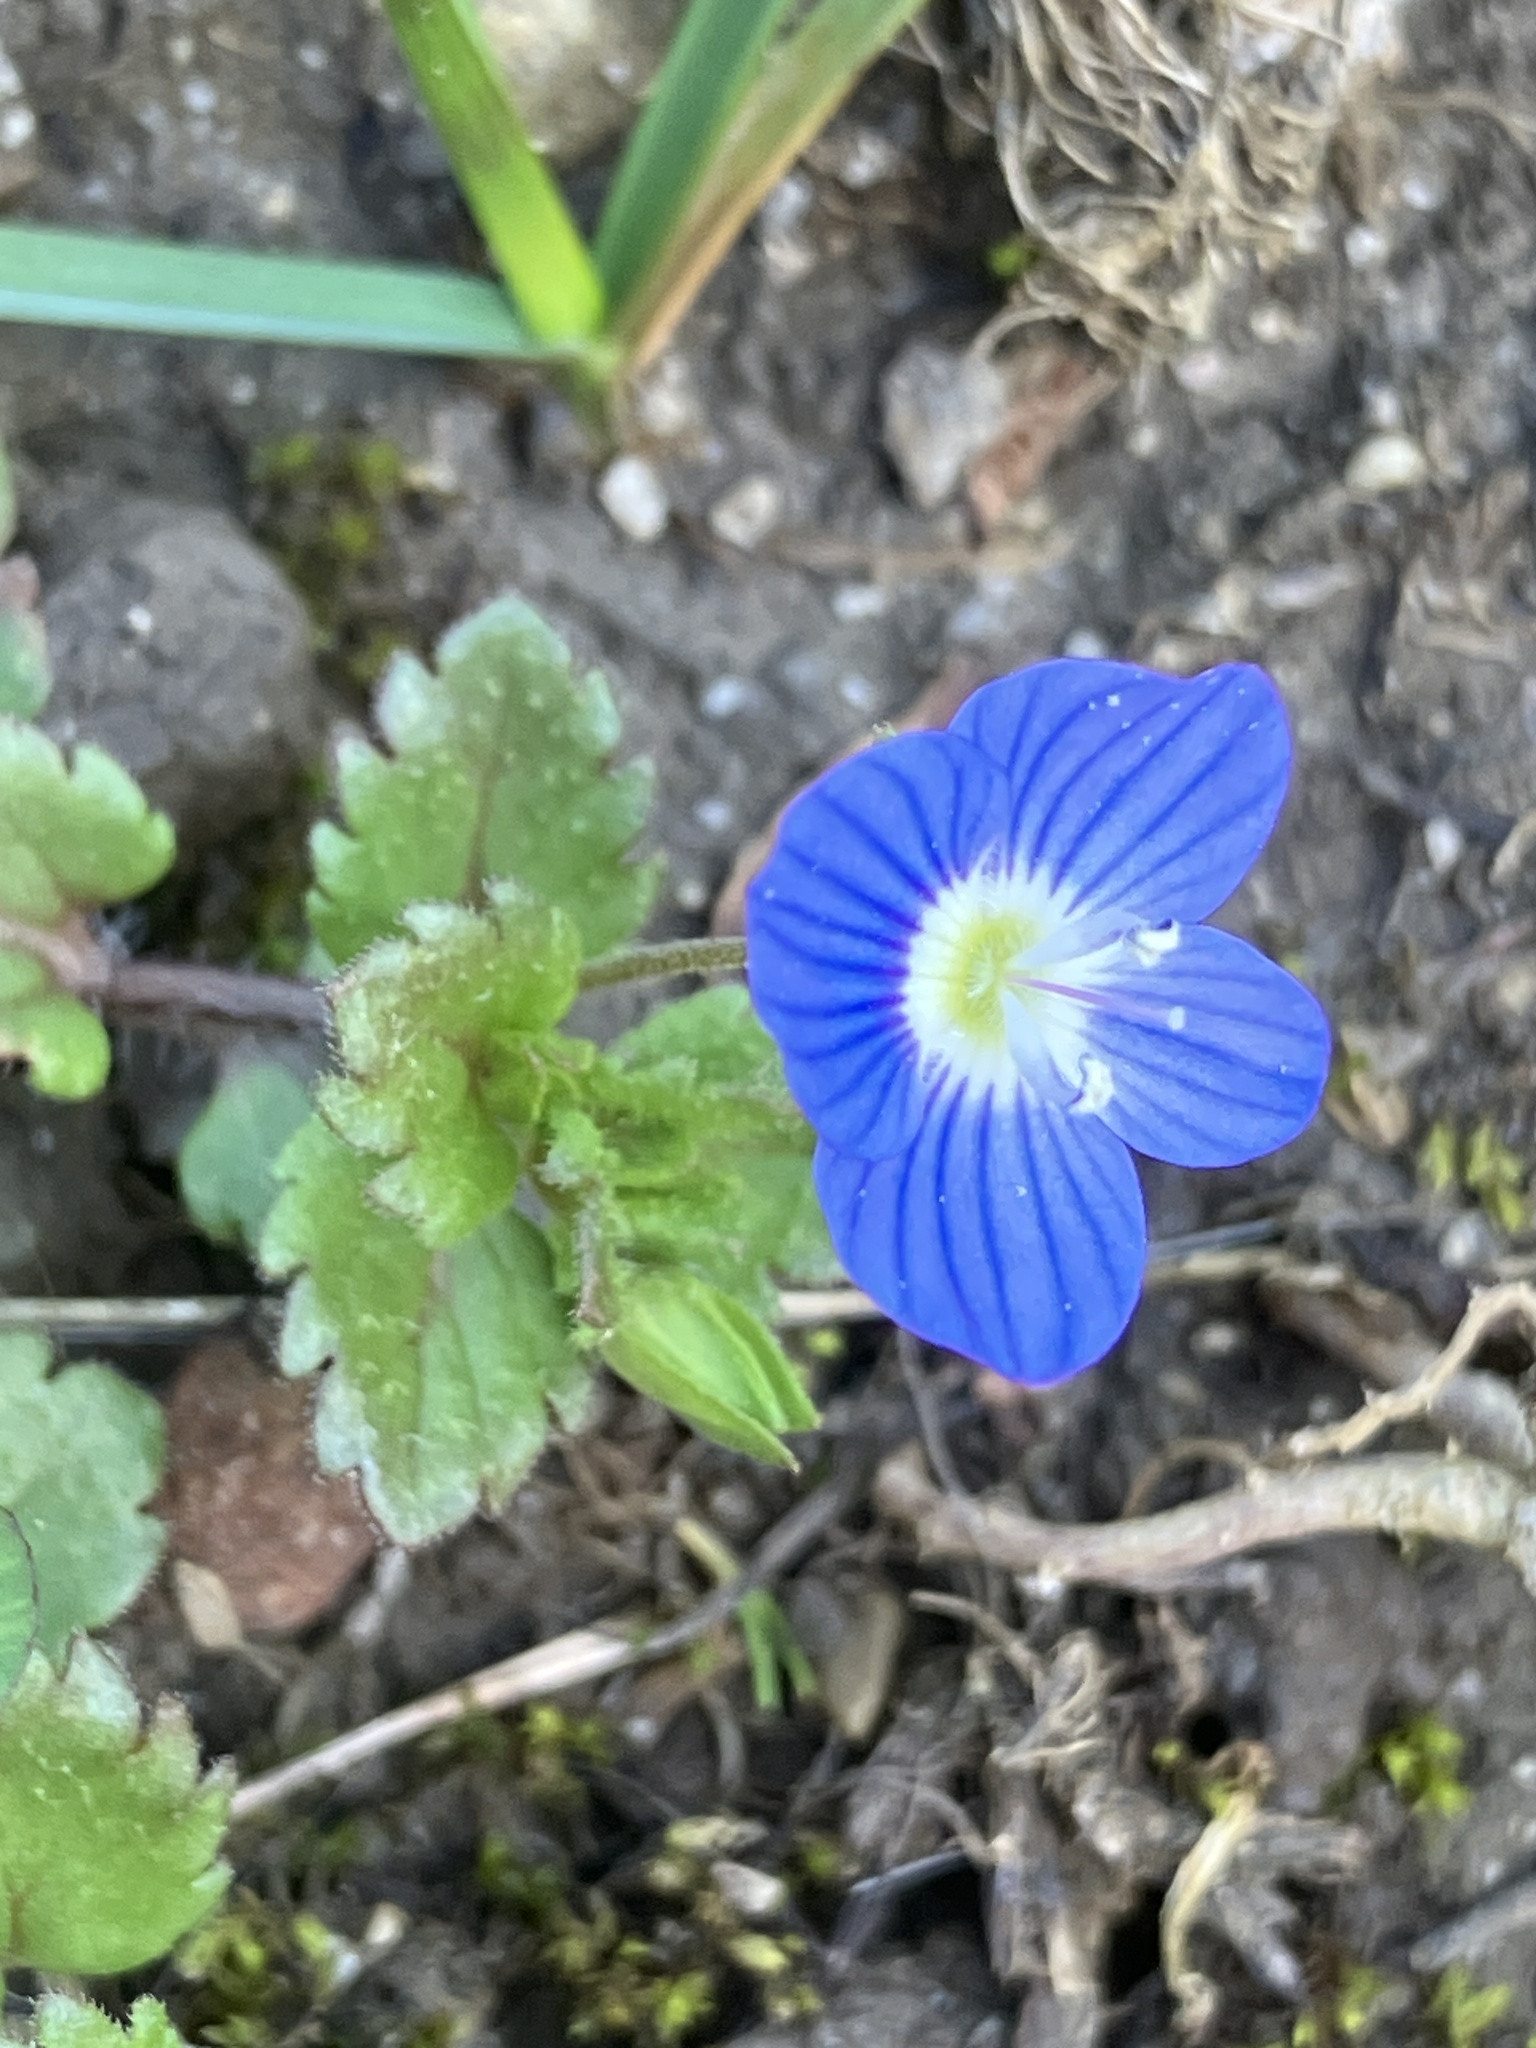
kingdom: Plantae
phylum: Tracheophyta
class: Magnoliopsida
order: Lamiales
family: Plantaginaceae
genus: Veronica
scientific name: Veronica persica
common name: Common field-speedwell
